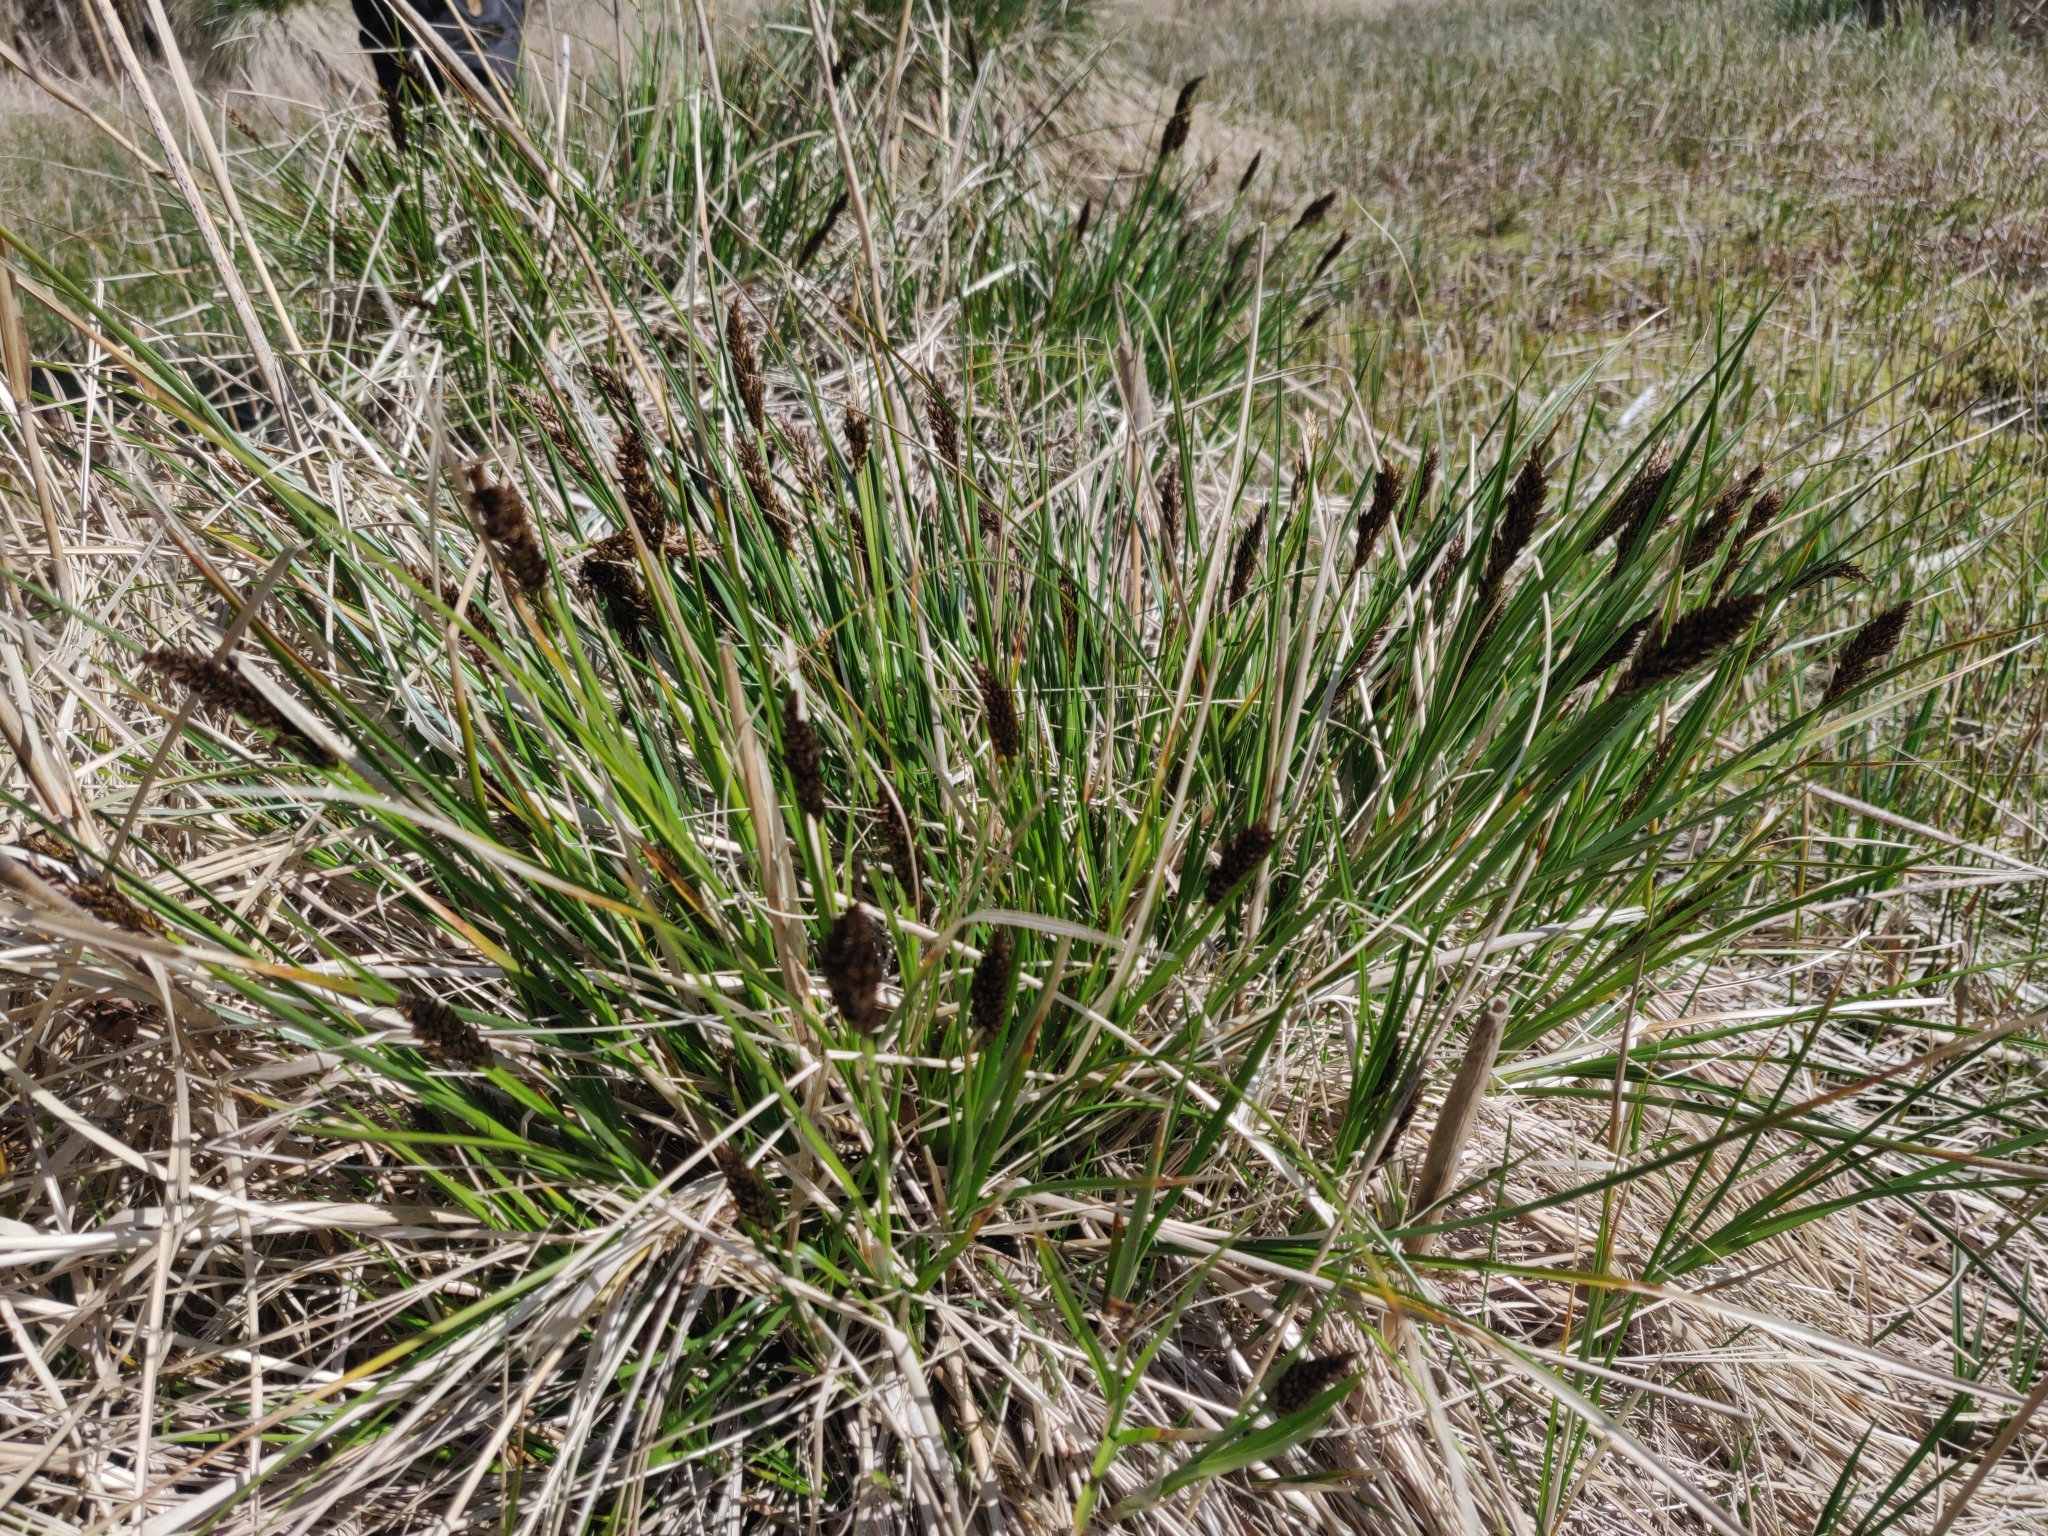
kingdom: Plantae
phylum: Tracheophyta
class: Liliopsida
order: Poales
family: Cyperaceae
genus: Carex
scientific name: Carex paniculata
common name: Greater tussock-sedge
